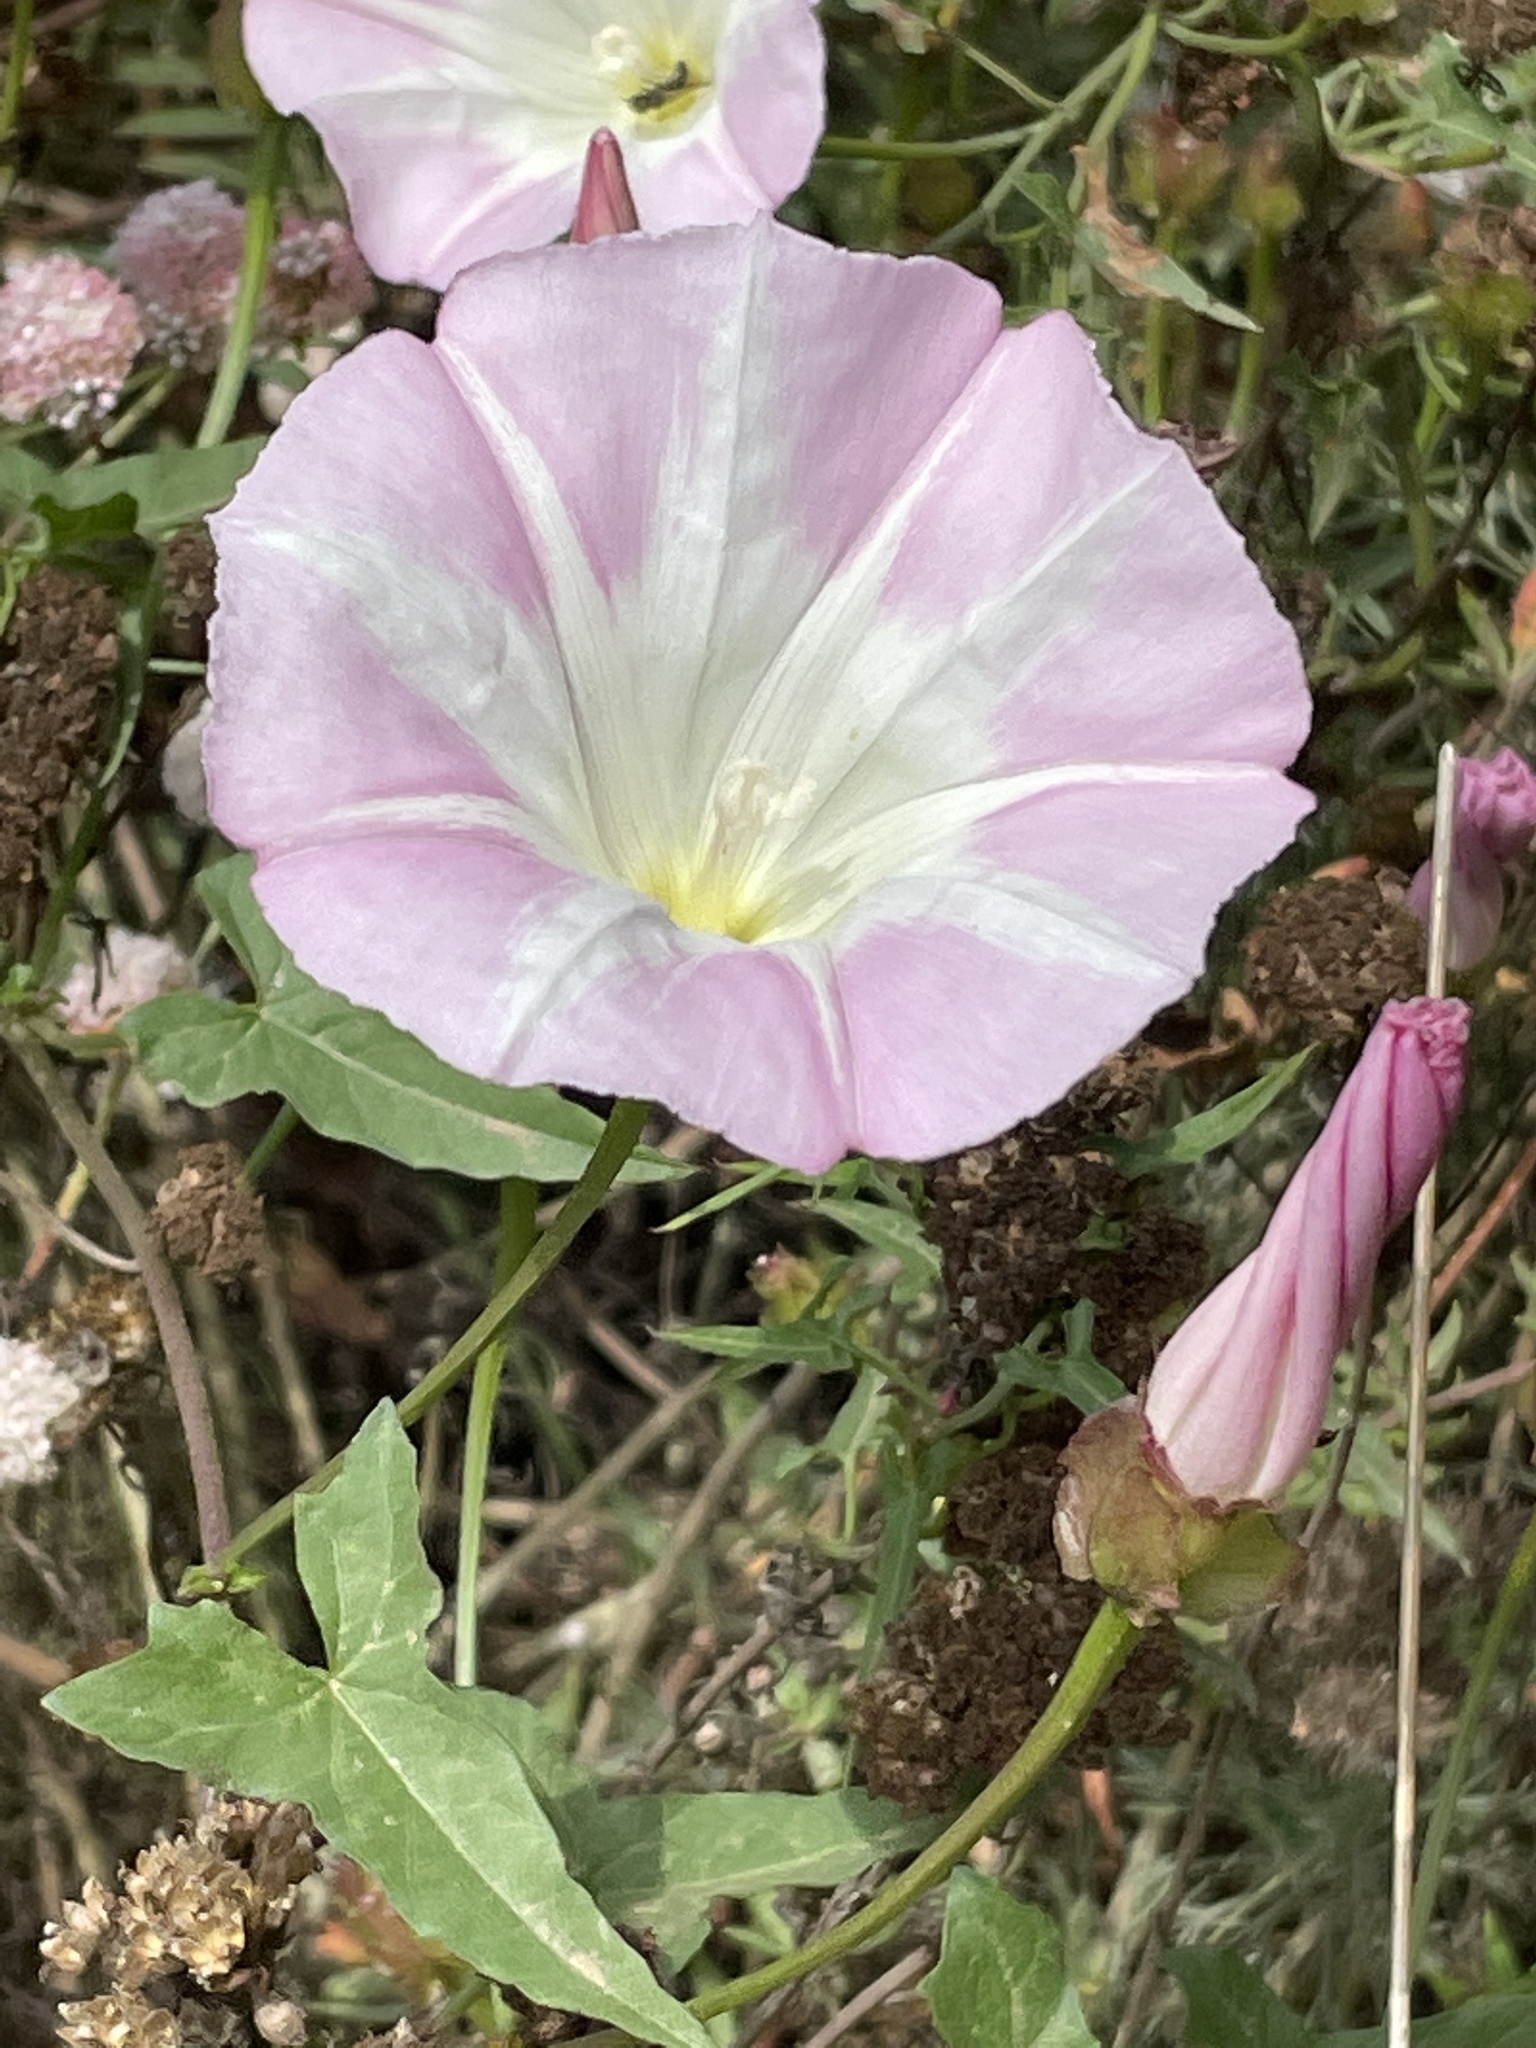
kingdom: Plantae
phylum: Tracheophyta
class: Magnoliopsida
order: Solanales
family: Convolvulaceae
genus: Calystegia
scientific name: Calystegia macrostegia
